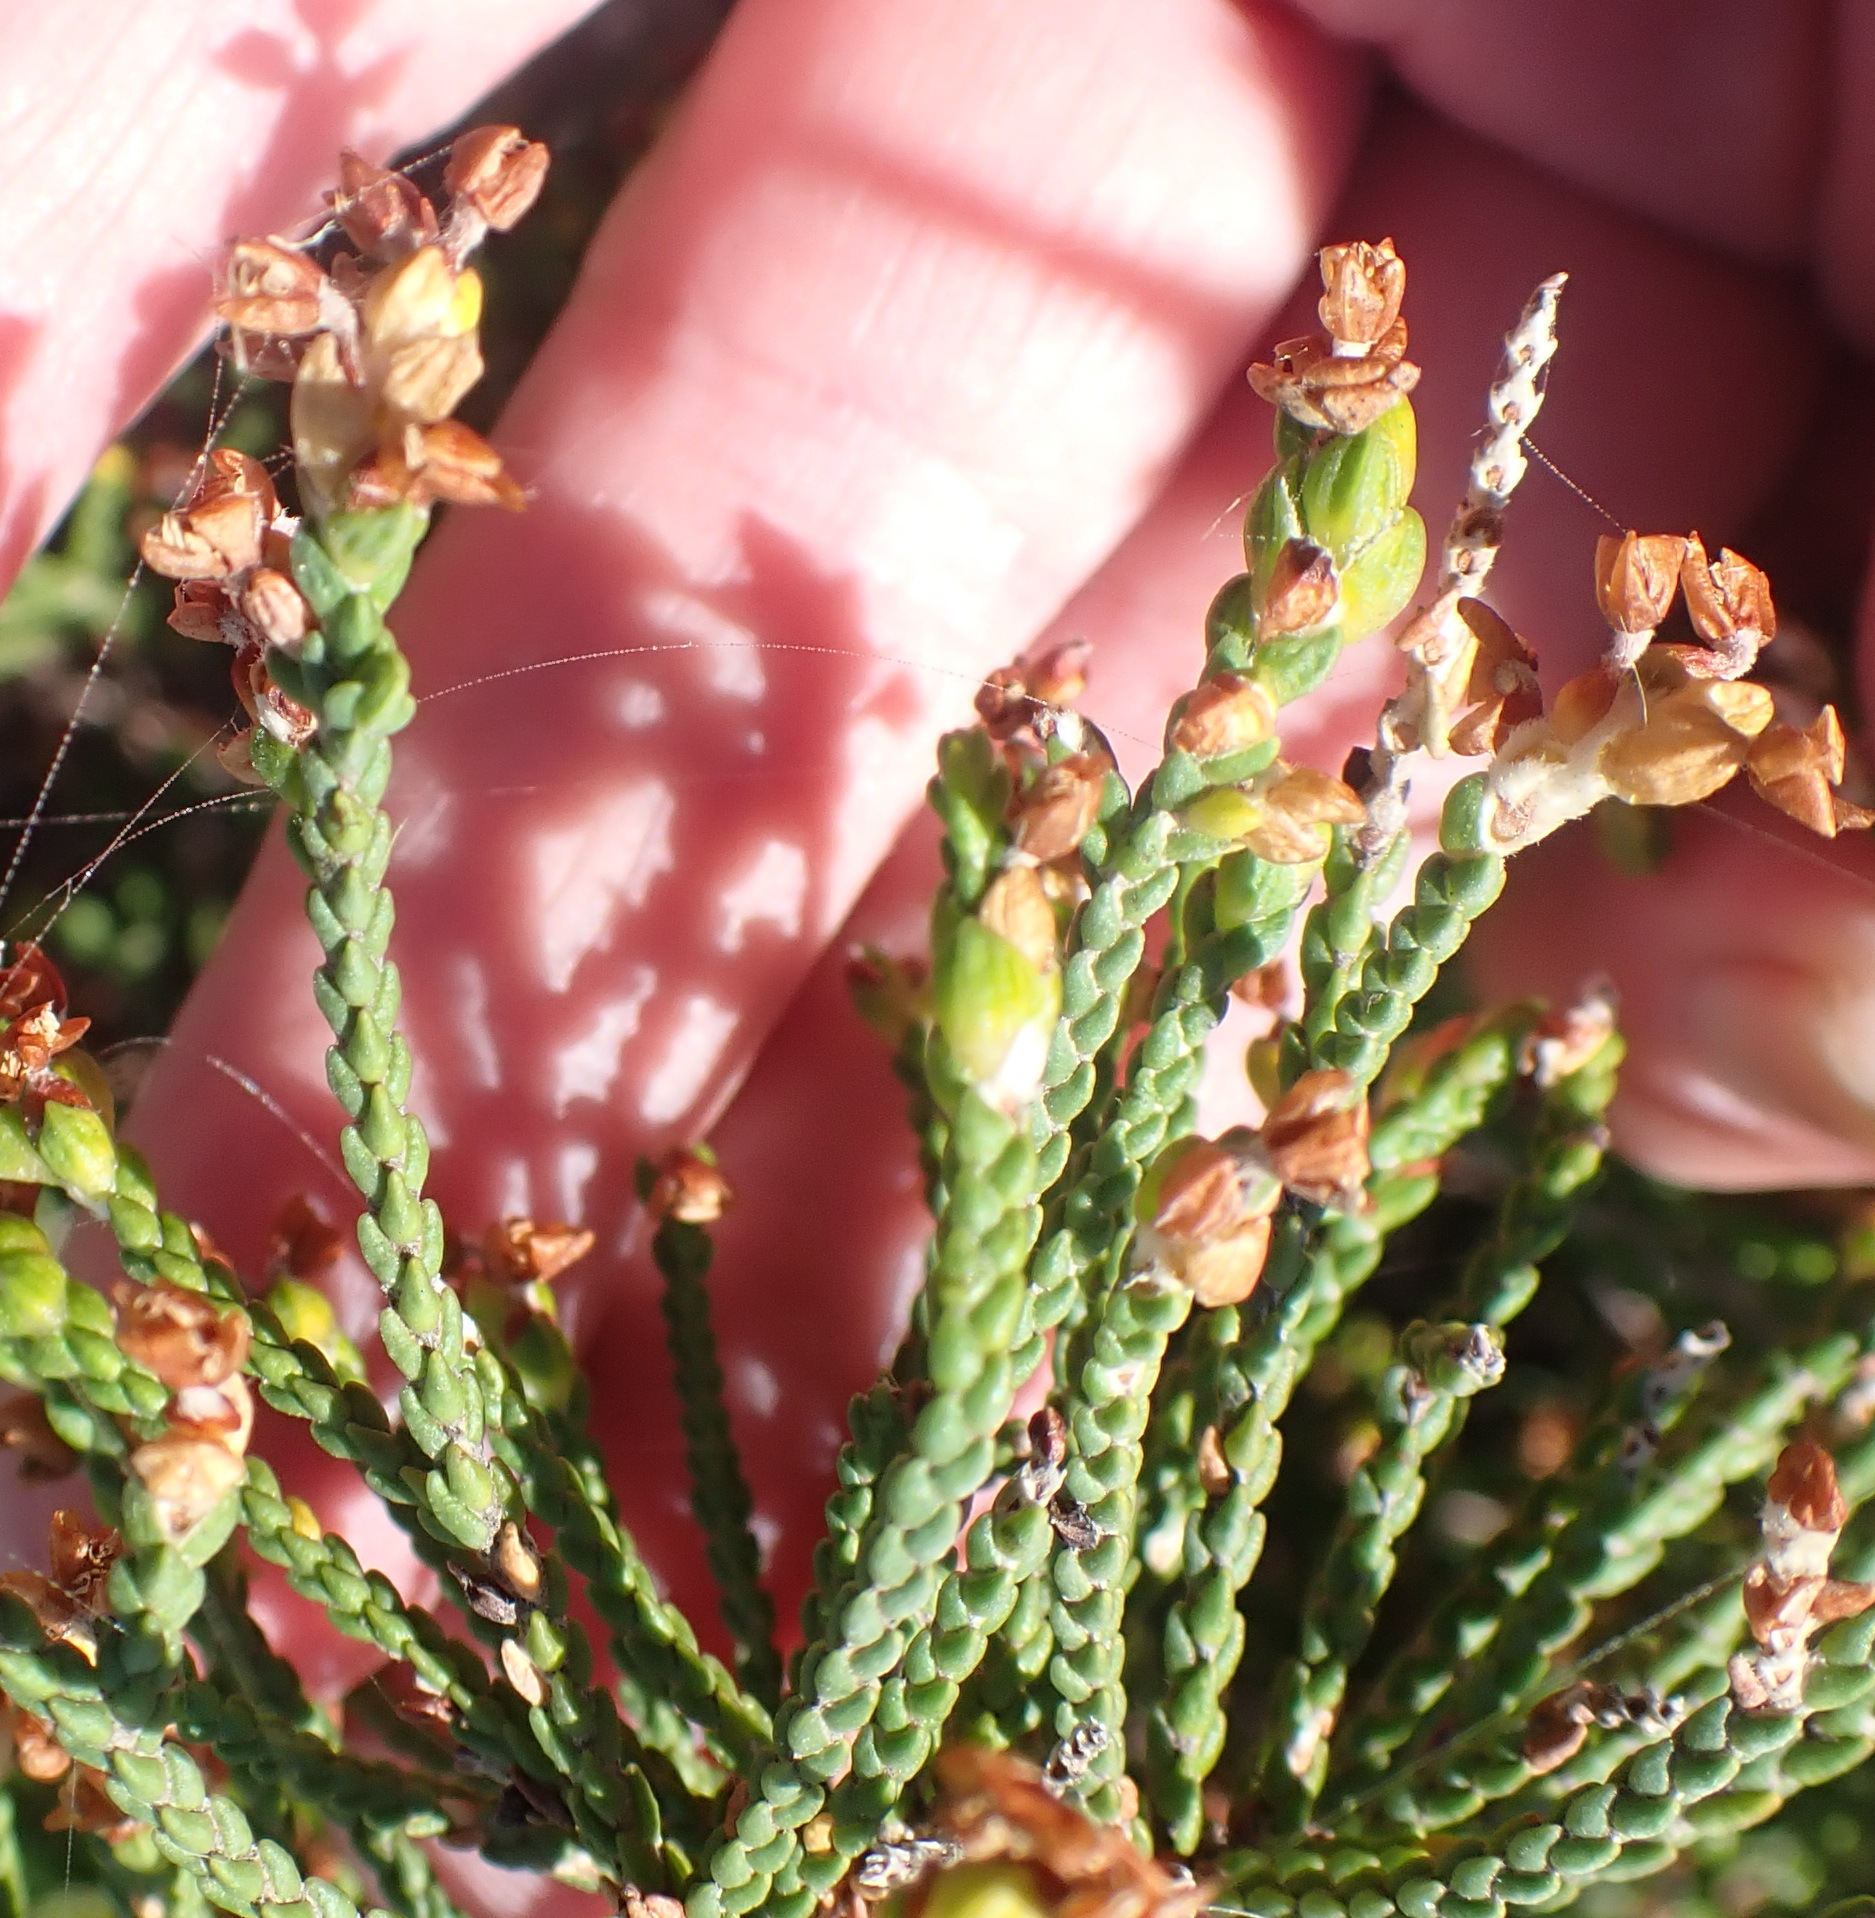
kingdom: Plantae
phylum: Tracheophyta
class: Magnoliopsida
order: Malvales
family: Thymelaeaceae
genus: Passerina
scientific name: Passerina rigida
